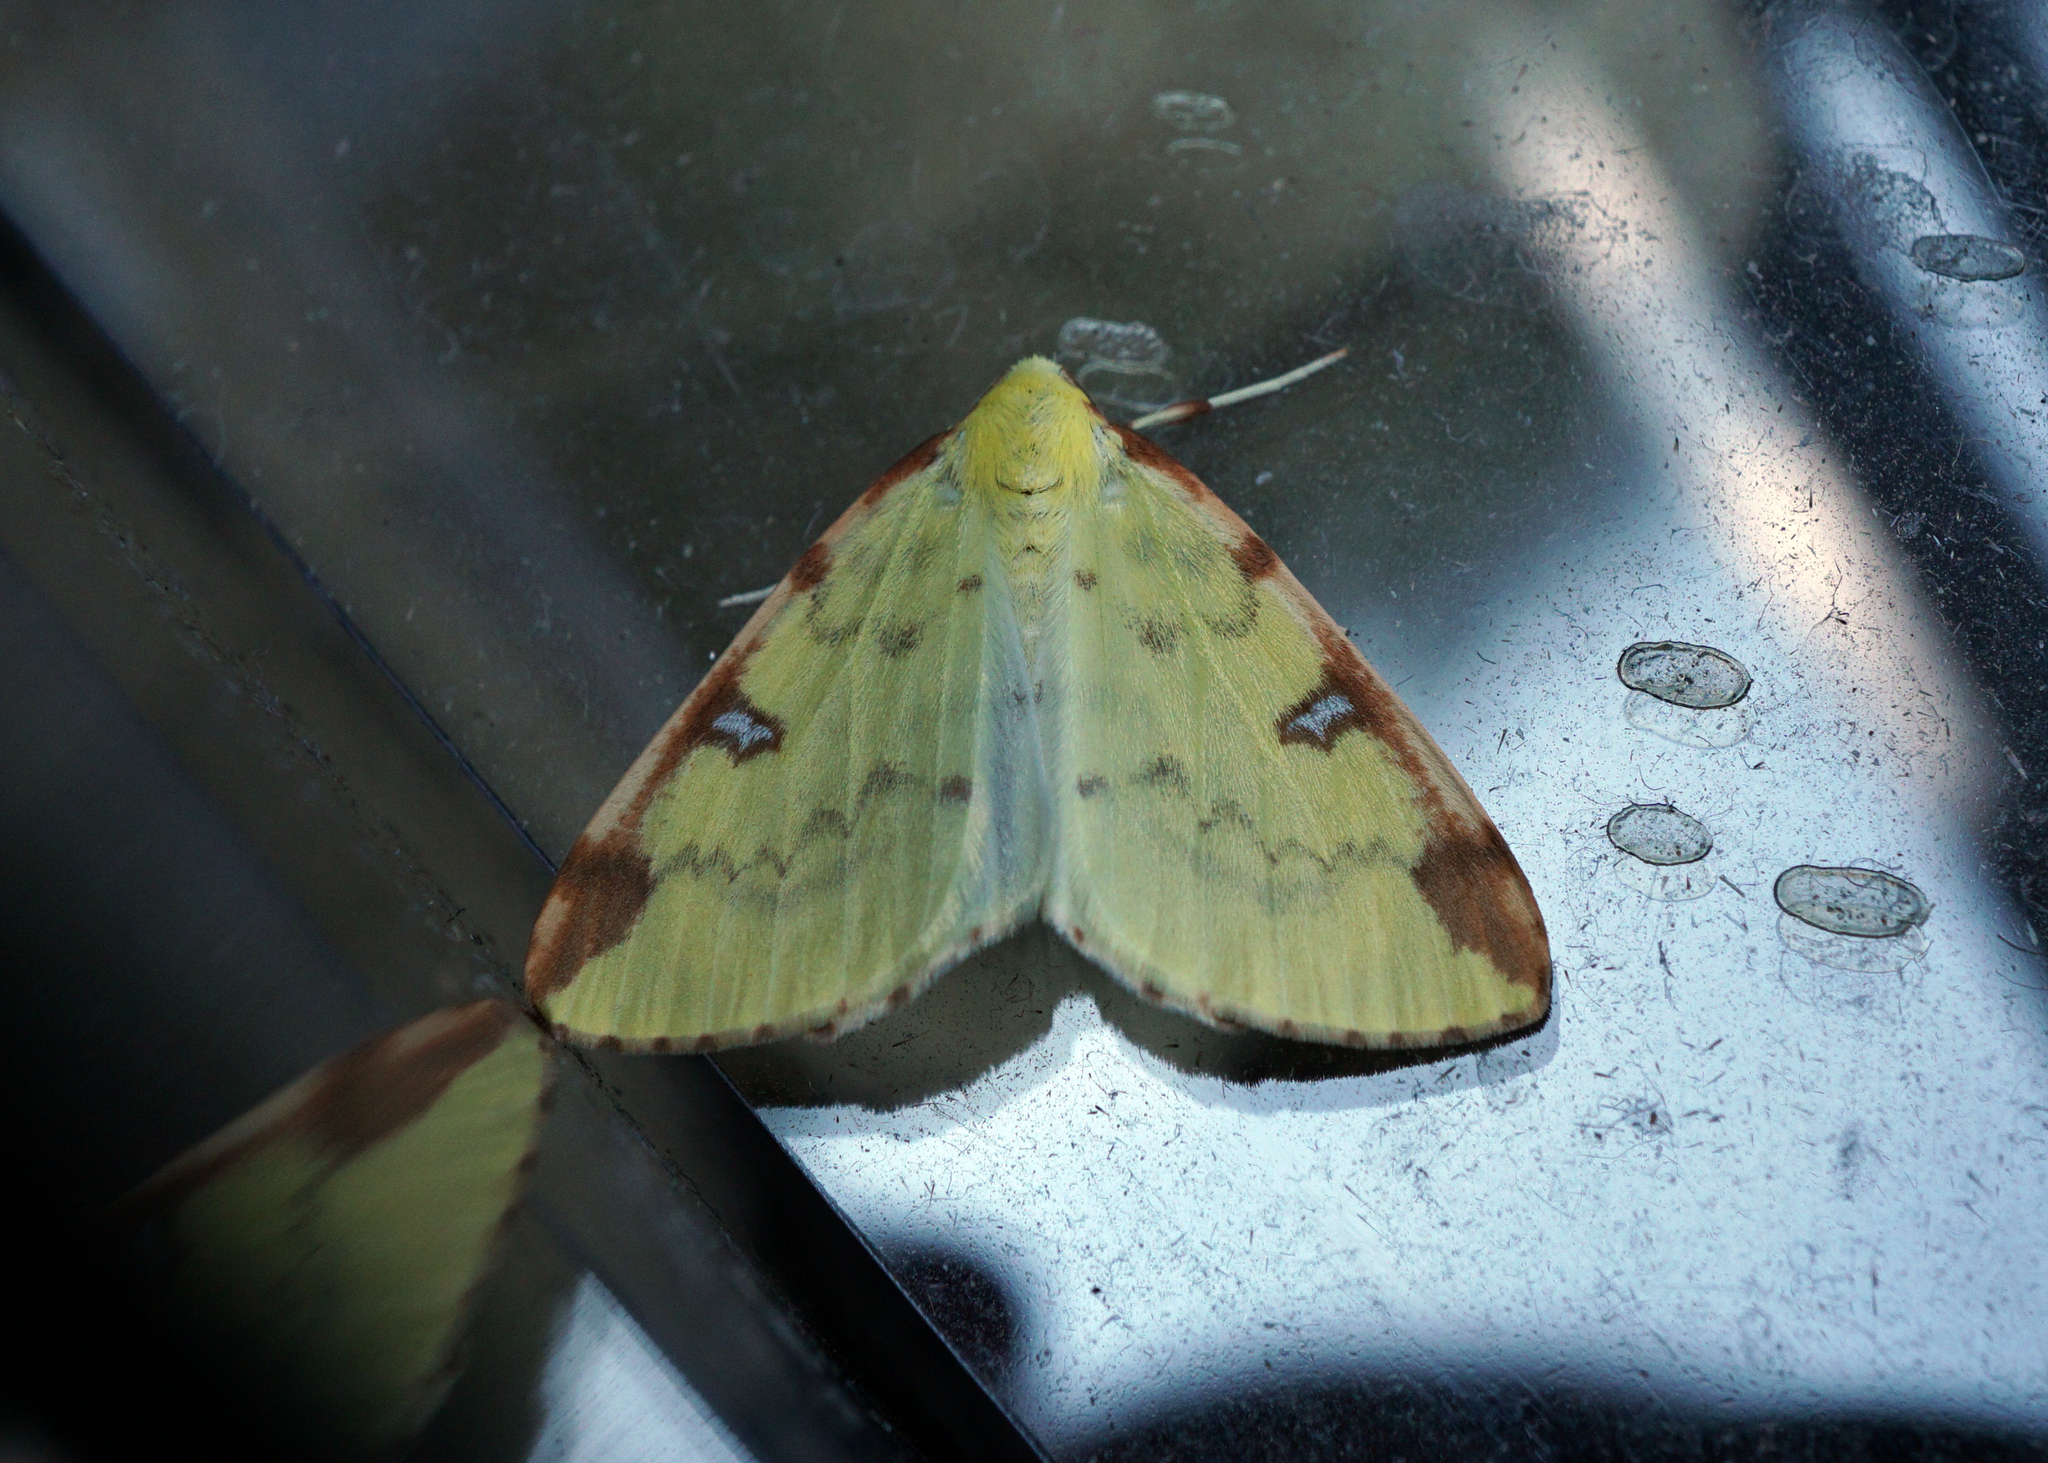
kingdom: Animalia
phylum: Arthropoda
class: Insecta
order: Lepidoptera
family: Geometridae
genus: Opisthograptis
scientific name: Opisthograptis luteolata
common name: Brimstone moth
